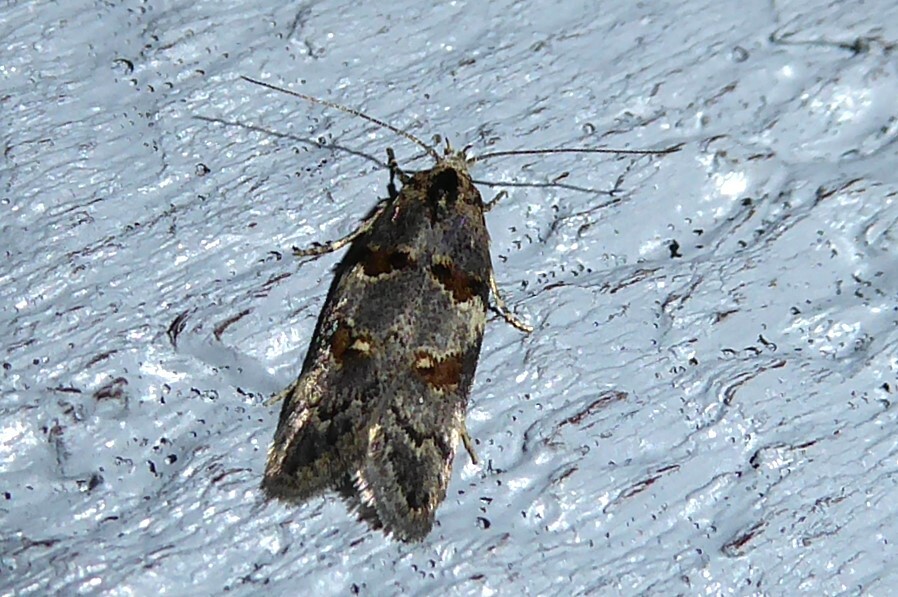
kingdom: Animalia
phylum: Arthropoda
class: Insecta
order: Lepidoptera
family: Oecophoridae
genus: Trachypepla
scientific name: Trachypepla contritella
